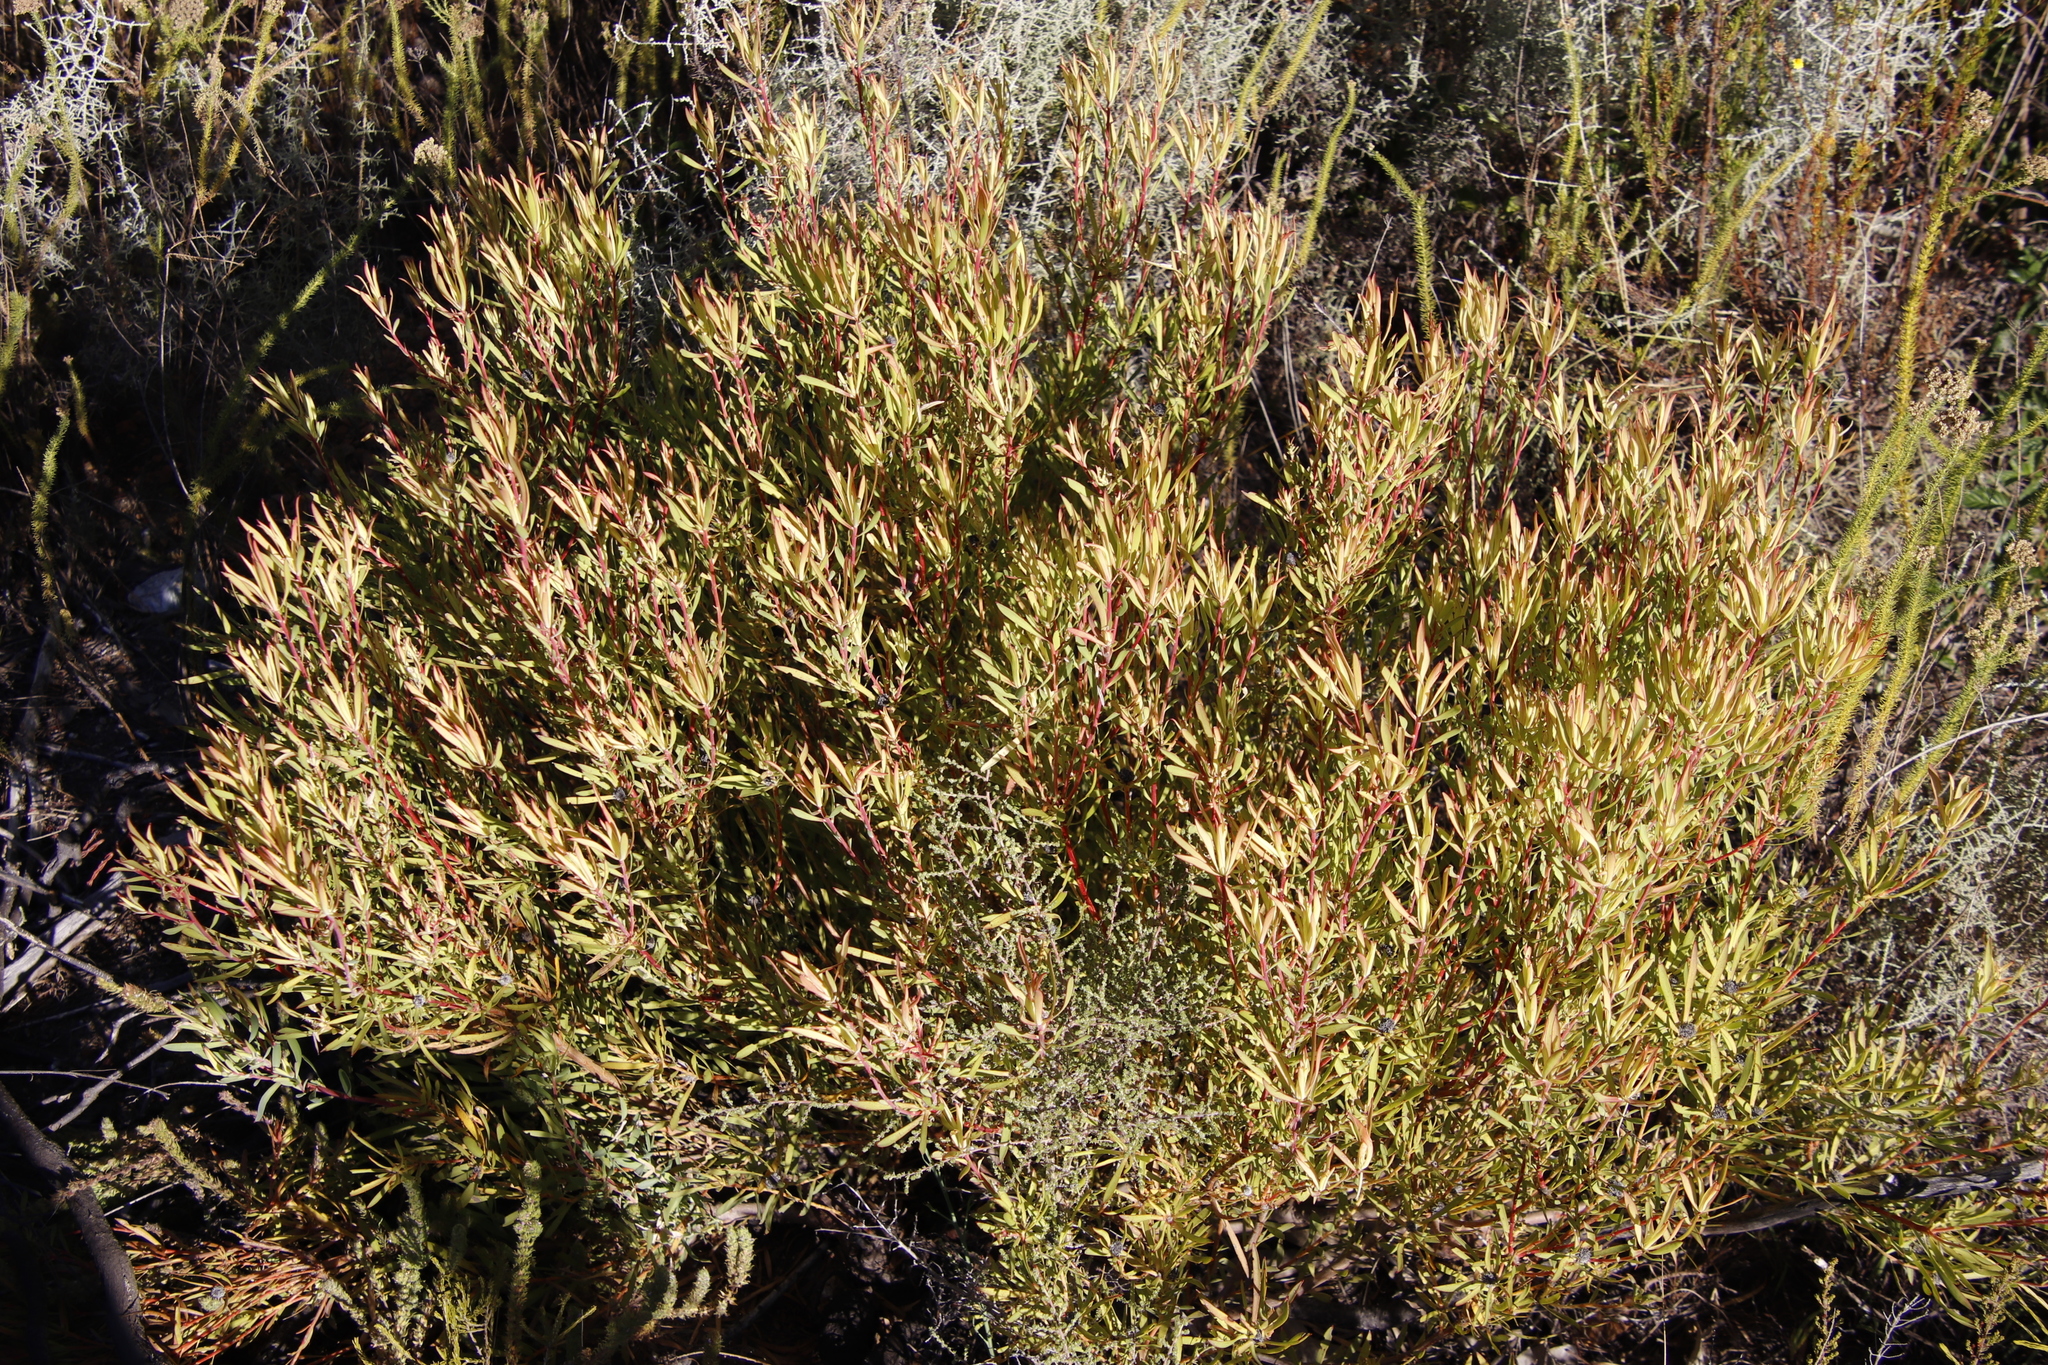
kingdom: Plantae
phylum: Tracheophyta
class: Magnoliopsida
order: Proteales
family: Proteaceae
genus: Leucadendron
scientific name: Leucadendron salignum
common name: Common sunshine conebush
